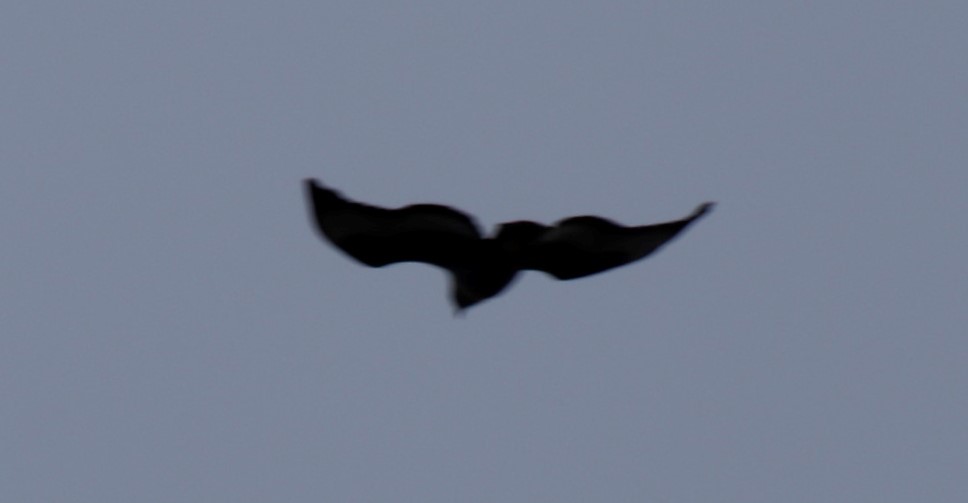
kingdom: Animalia
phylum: Chordata
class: Aves
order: Accipitriformes
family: Accipitridae
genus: Aquila
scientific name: Aquila verreauxii
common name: Verreaux's eagle
